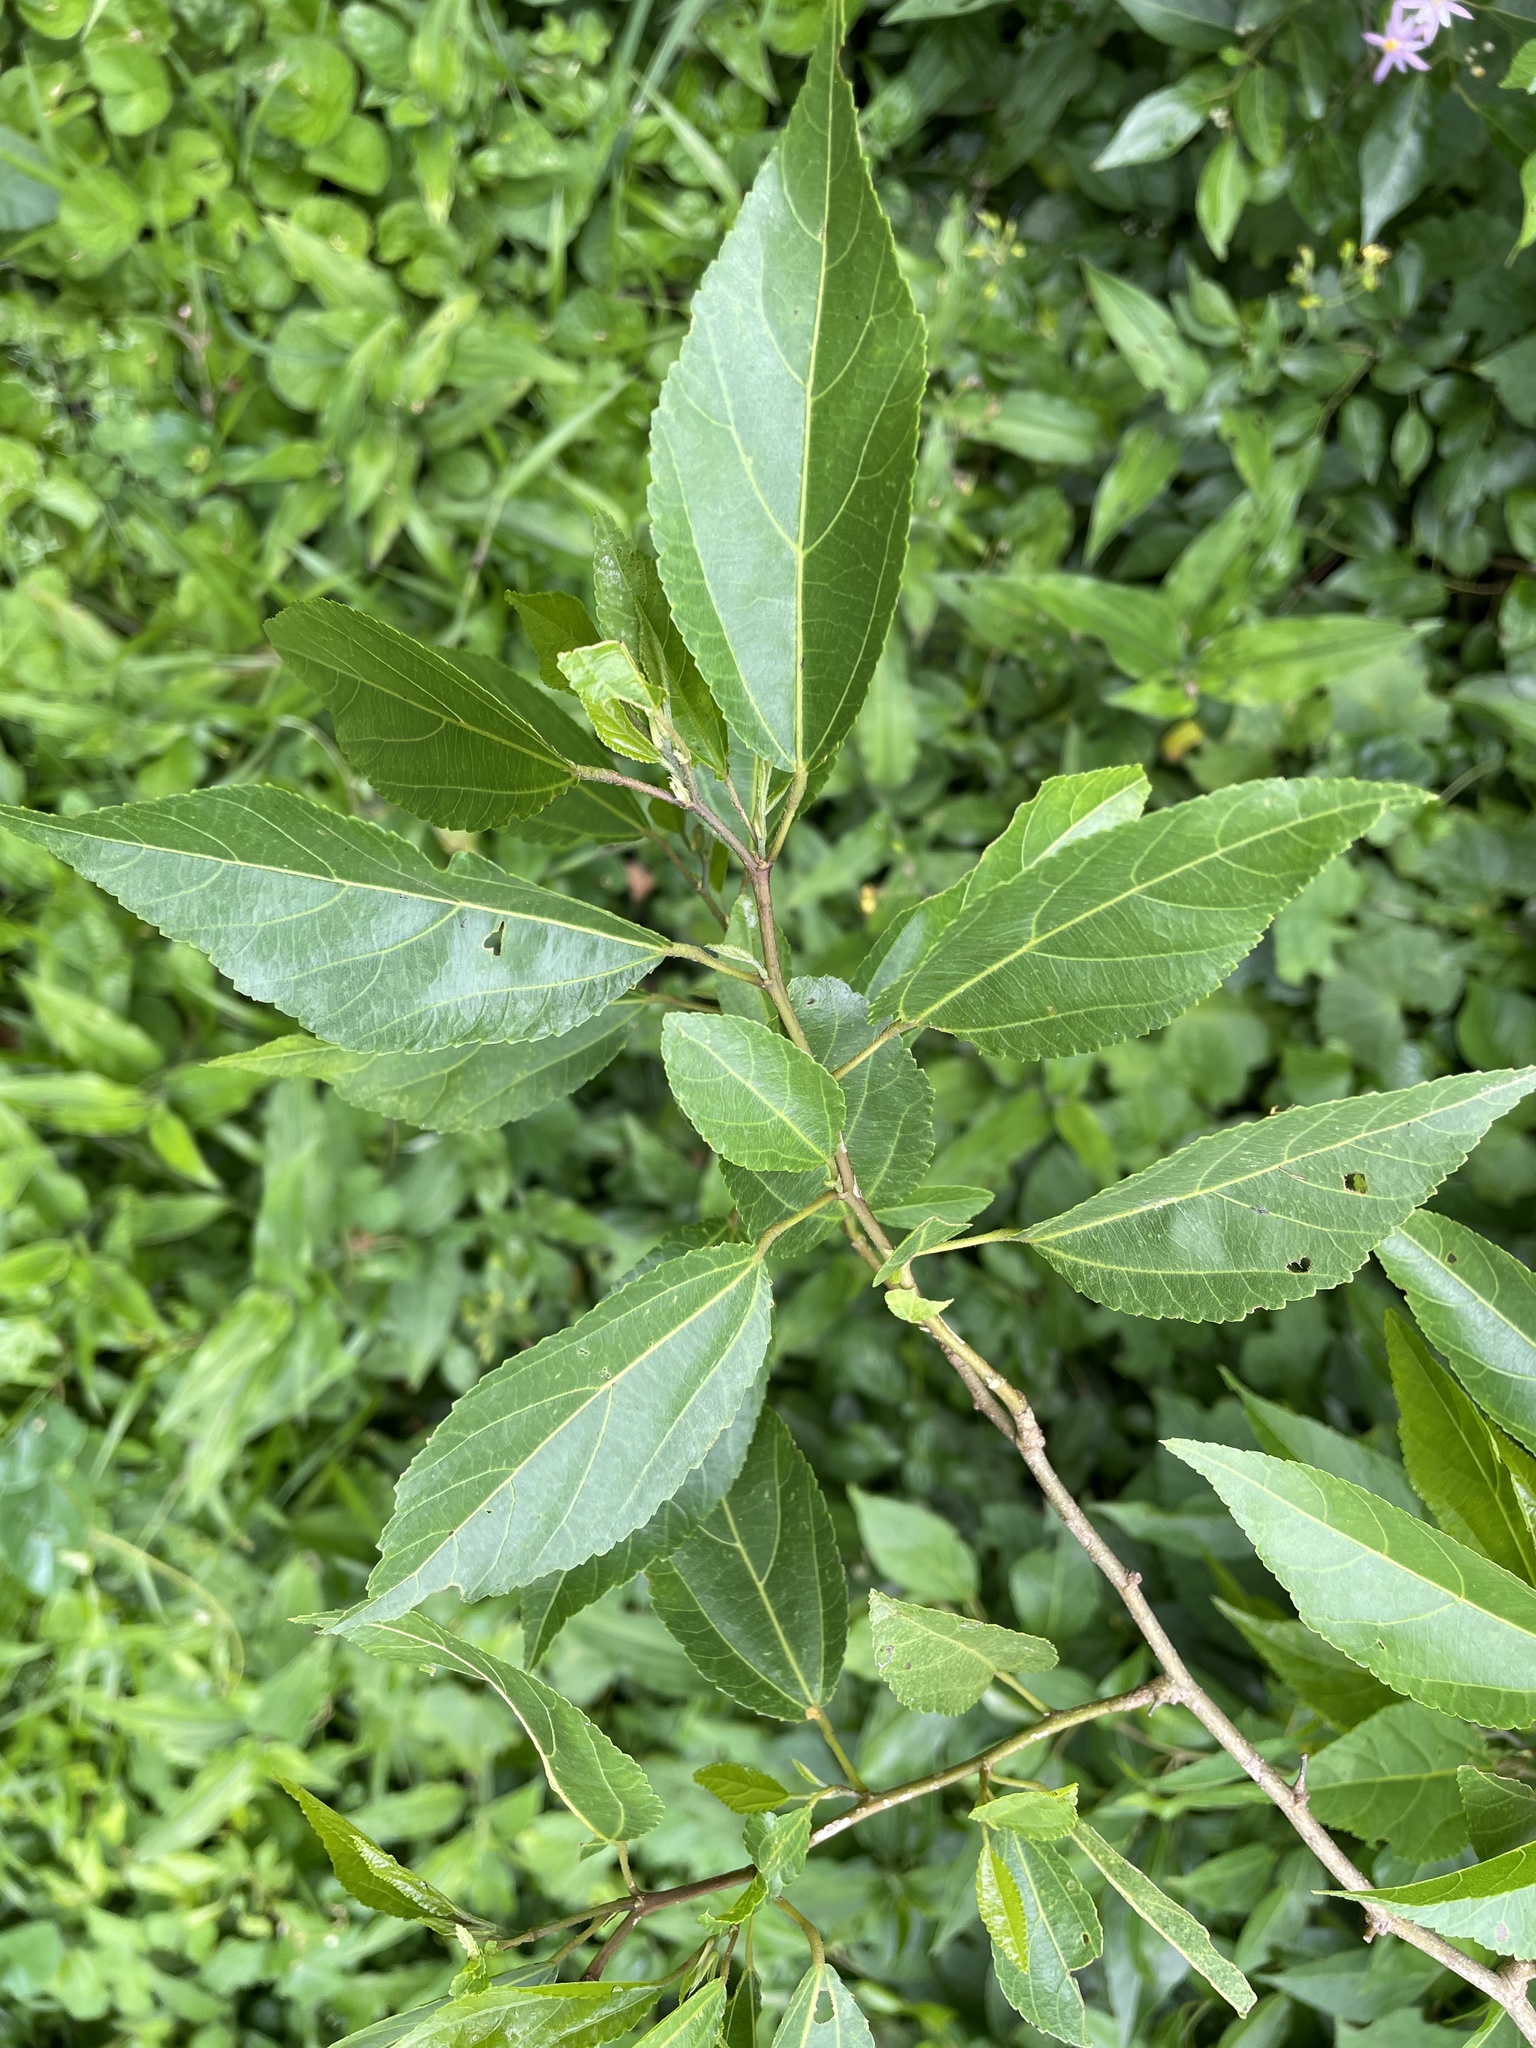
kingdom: Plantae
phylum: Tracheophyta
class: Magnoliopsida
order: Malvales
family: Malvaceae
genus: Grewia
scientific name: Grewia occidentalis
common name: Crossberry
